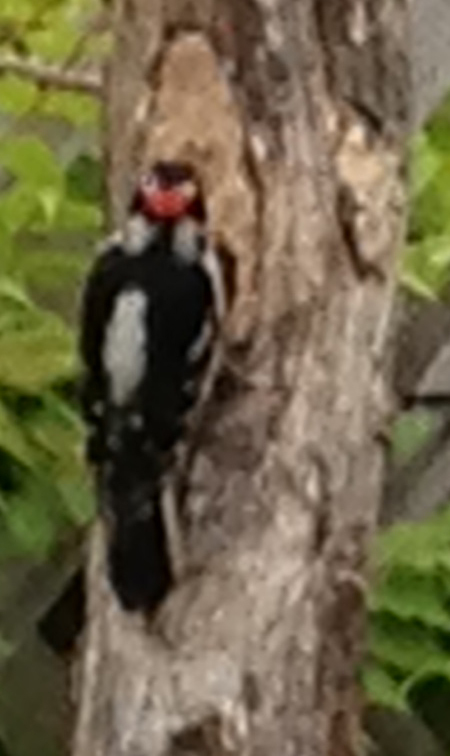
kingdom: Animalia
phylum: Chordata
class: Aves
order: Piciformes
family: Picidae
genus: Dryobates
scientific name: Dryobates pubescens
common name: Downy woodpecker
